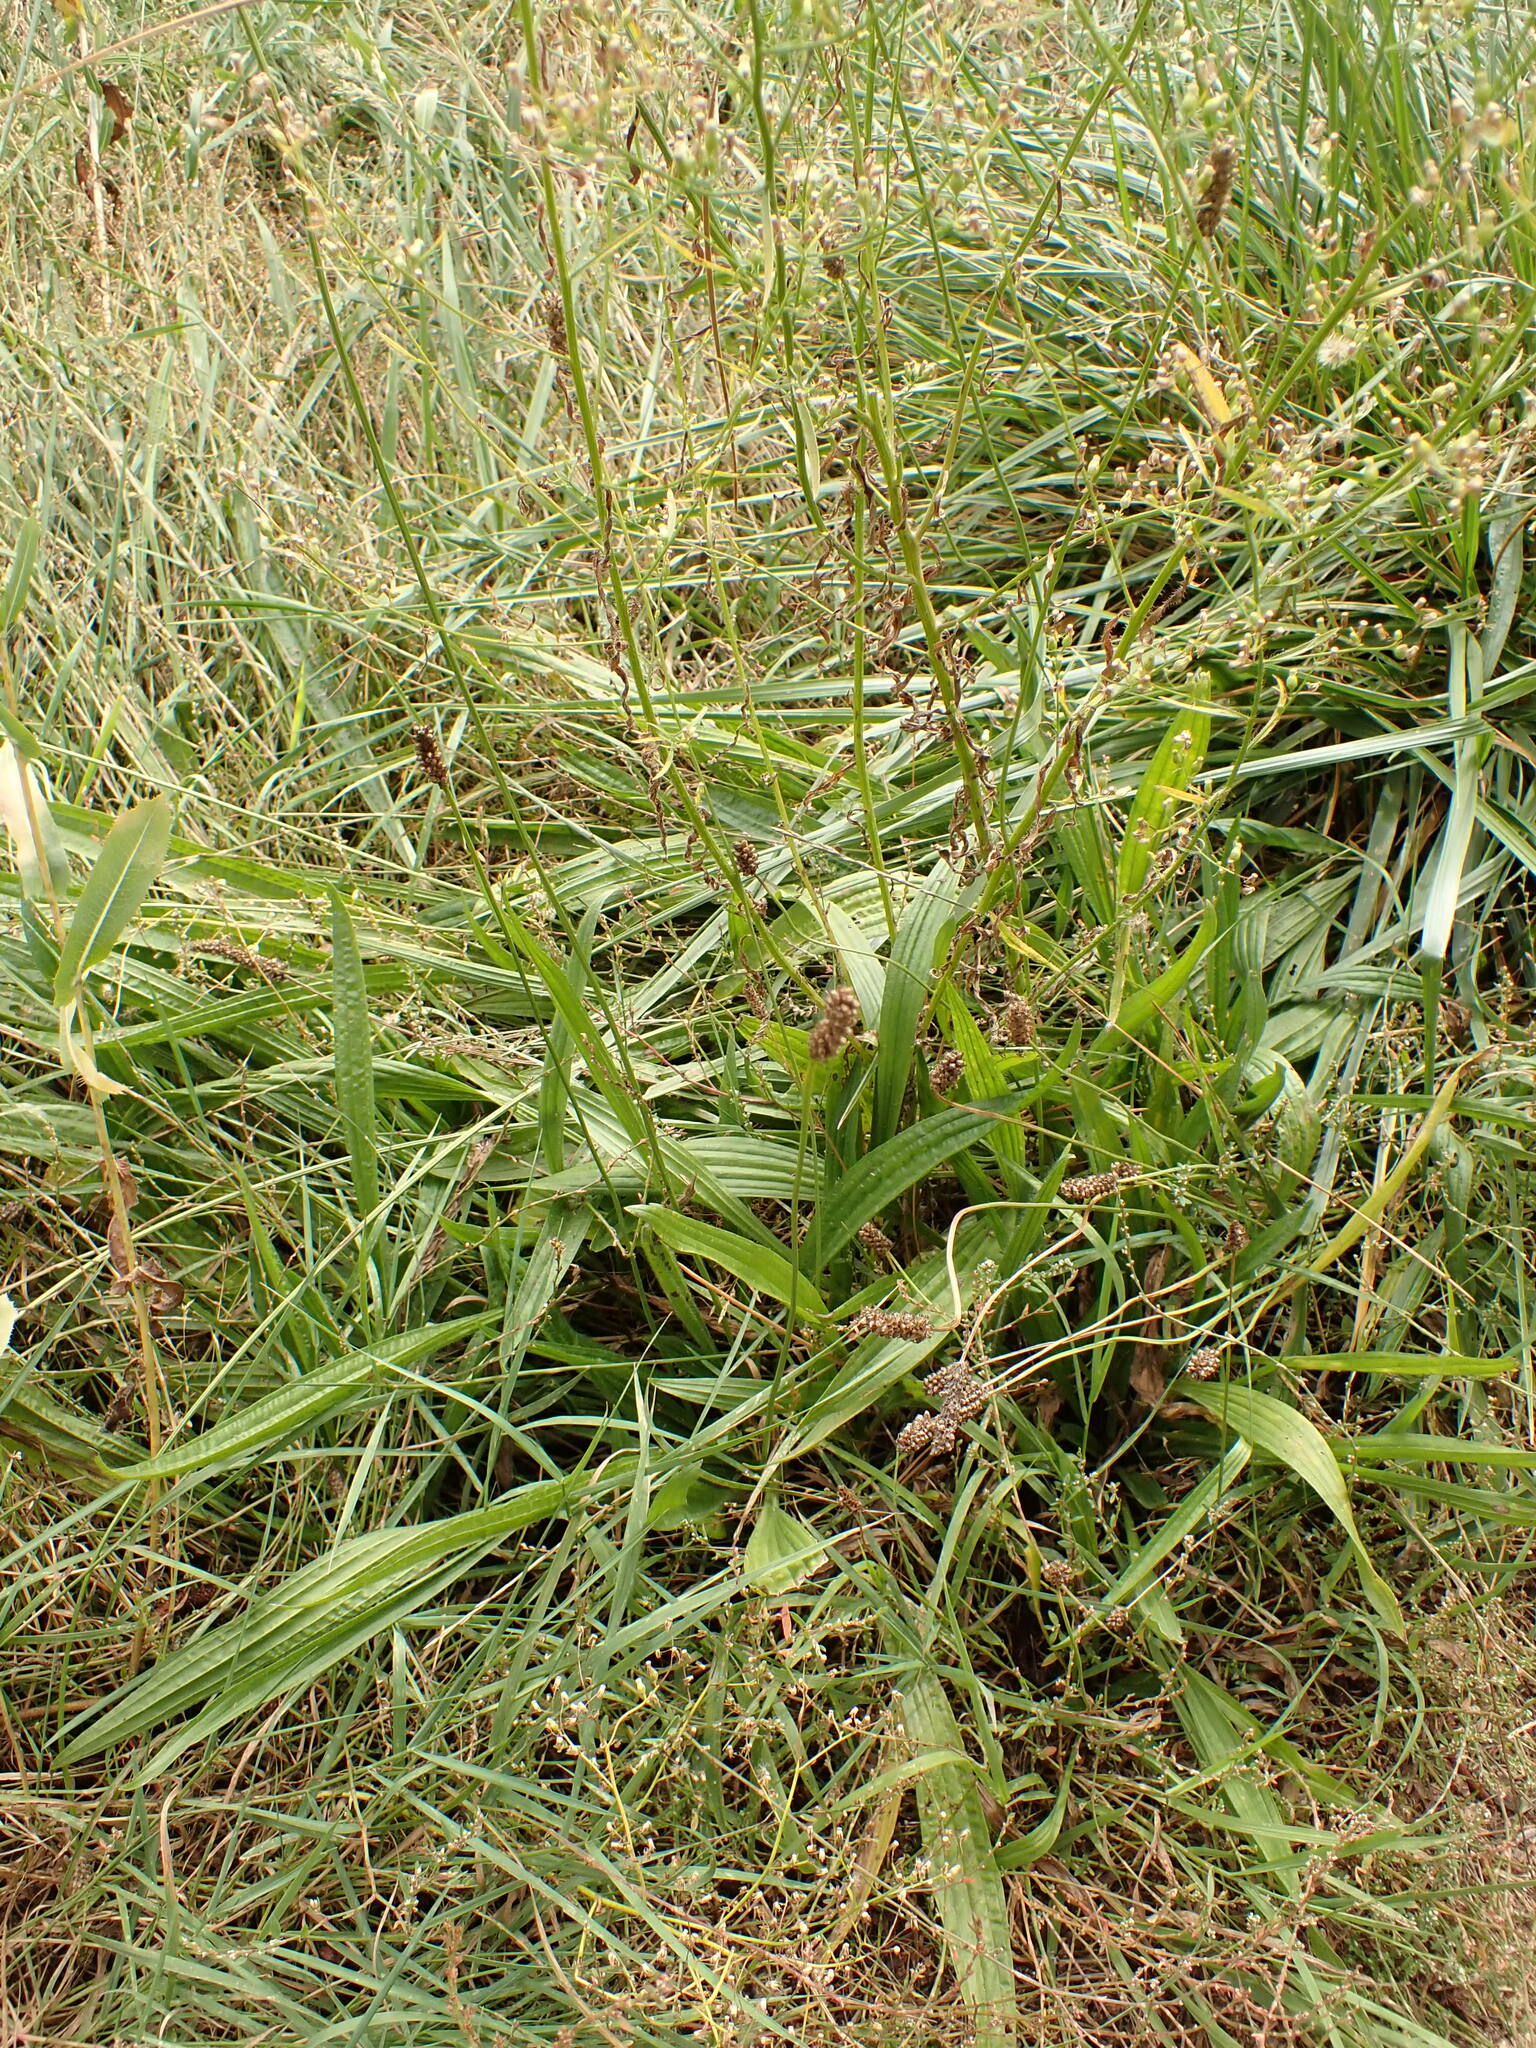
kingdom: Plantae
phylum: Tracheophyta
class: Magnoliopsida
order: Lamiales
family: Plantaginaceae
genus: Plantago
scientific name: Plantago lanceolata
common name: Ribwort plantain
